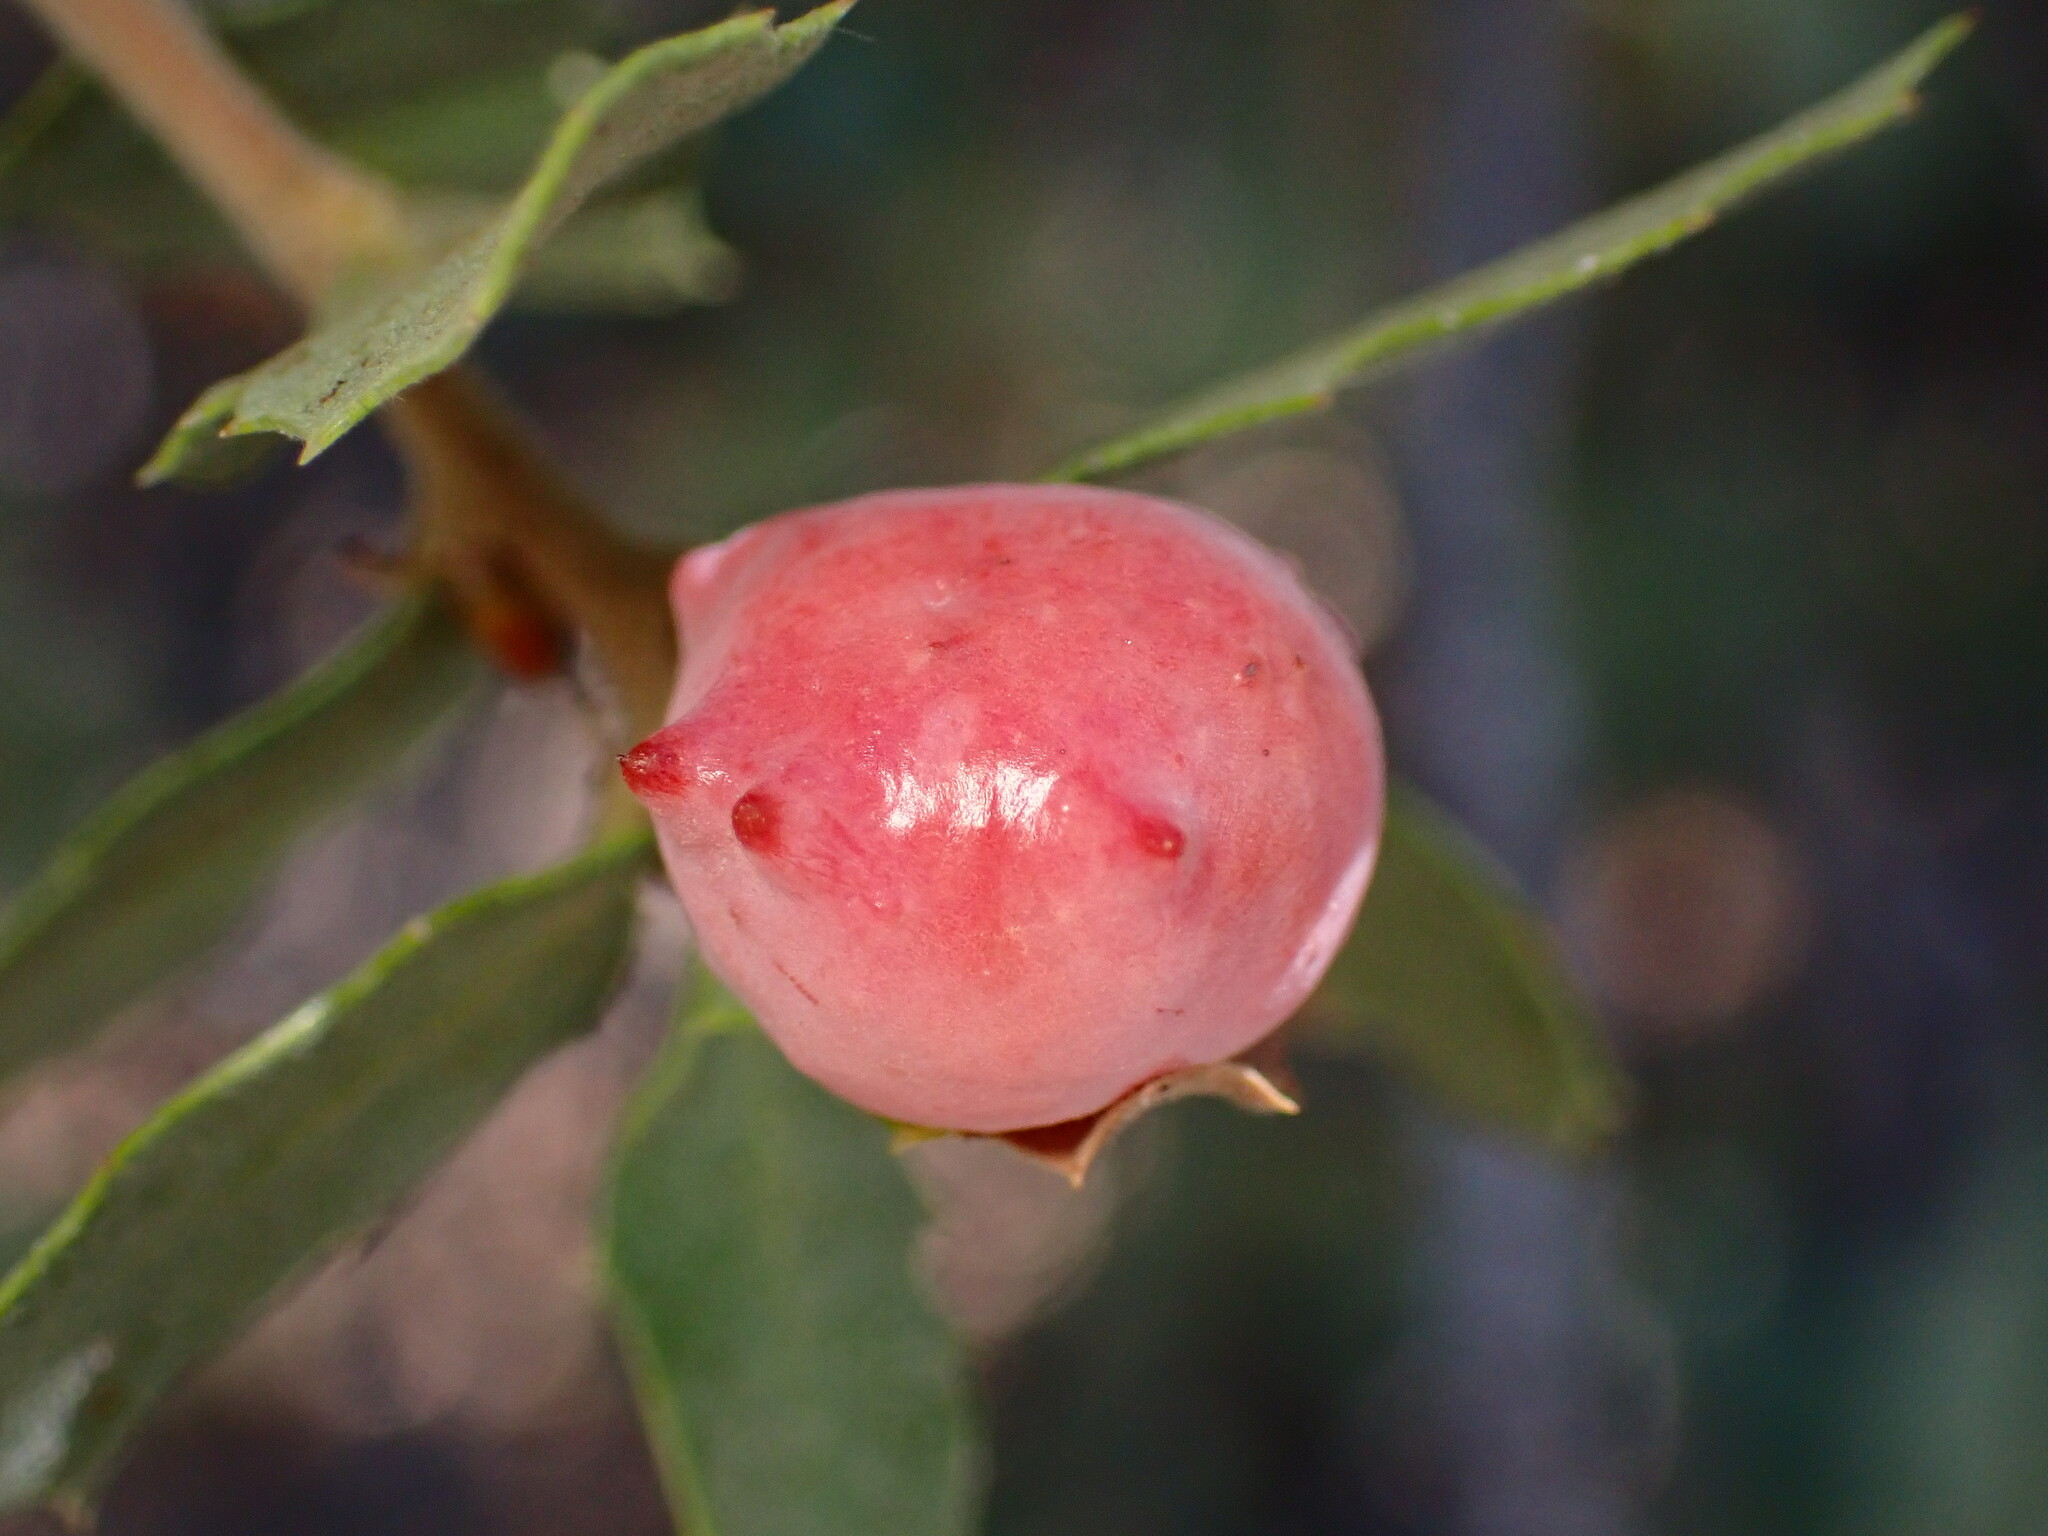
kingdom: Animalia
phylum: Arthropoda
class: Insecta
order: Hymenoptera
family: Cynipidae
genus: Cynips
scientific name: Cynips douglasi
